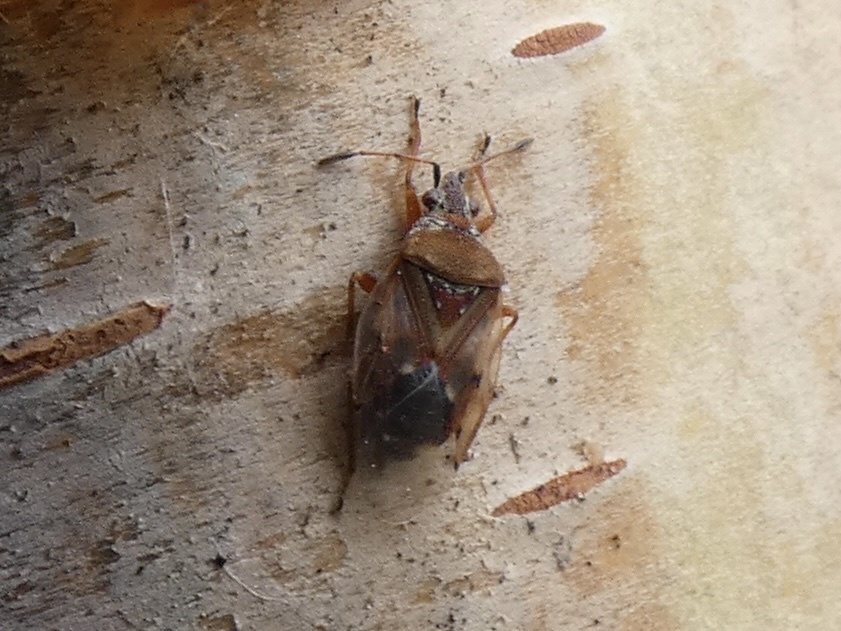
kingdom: Animalia
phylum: Arthropoda
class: Insecta
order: Hemiptera
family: Lygaeidae
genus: Kleidocerys
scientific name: Kleidocerys resedae
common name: Birch catkin bug
